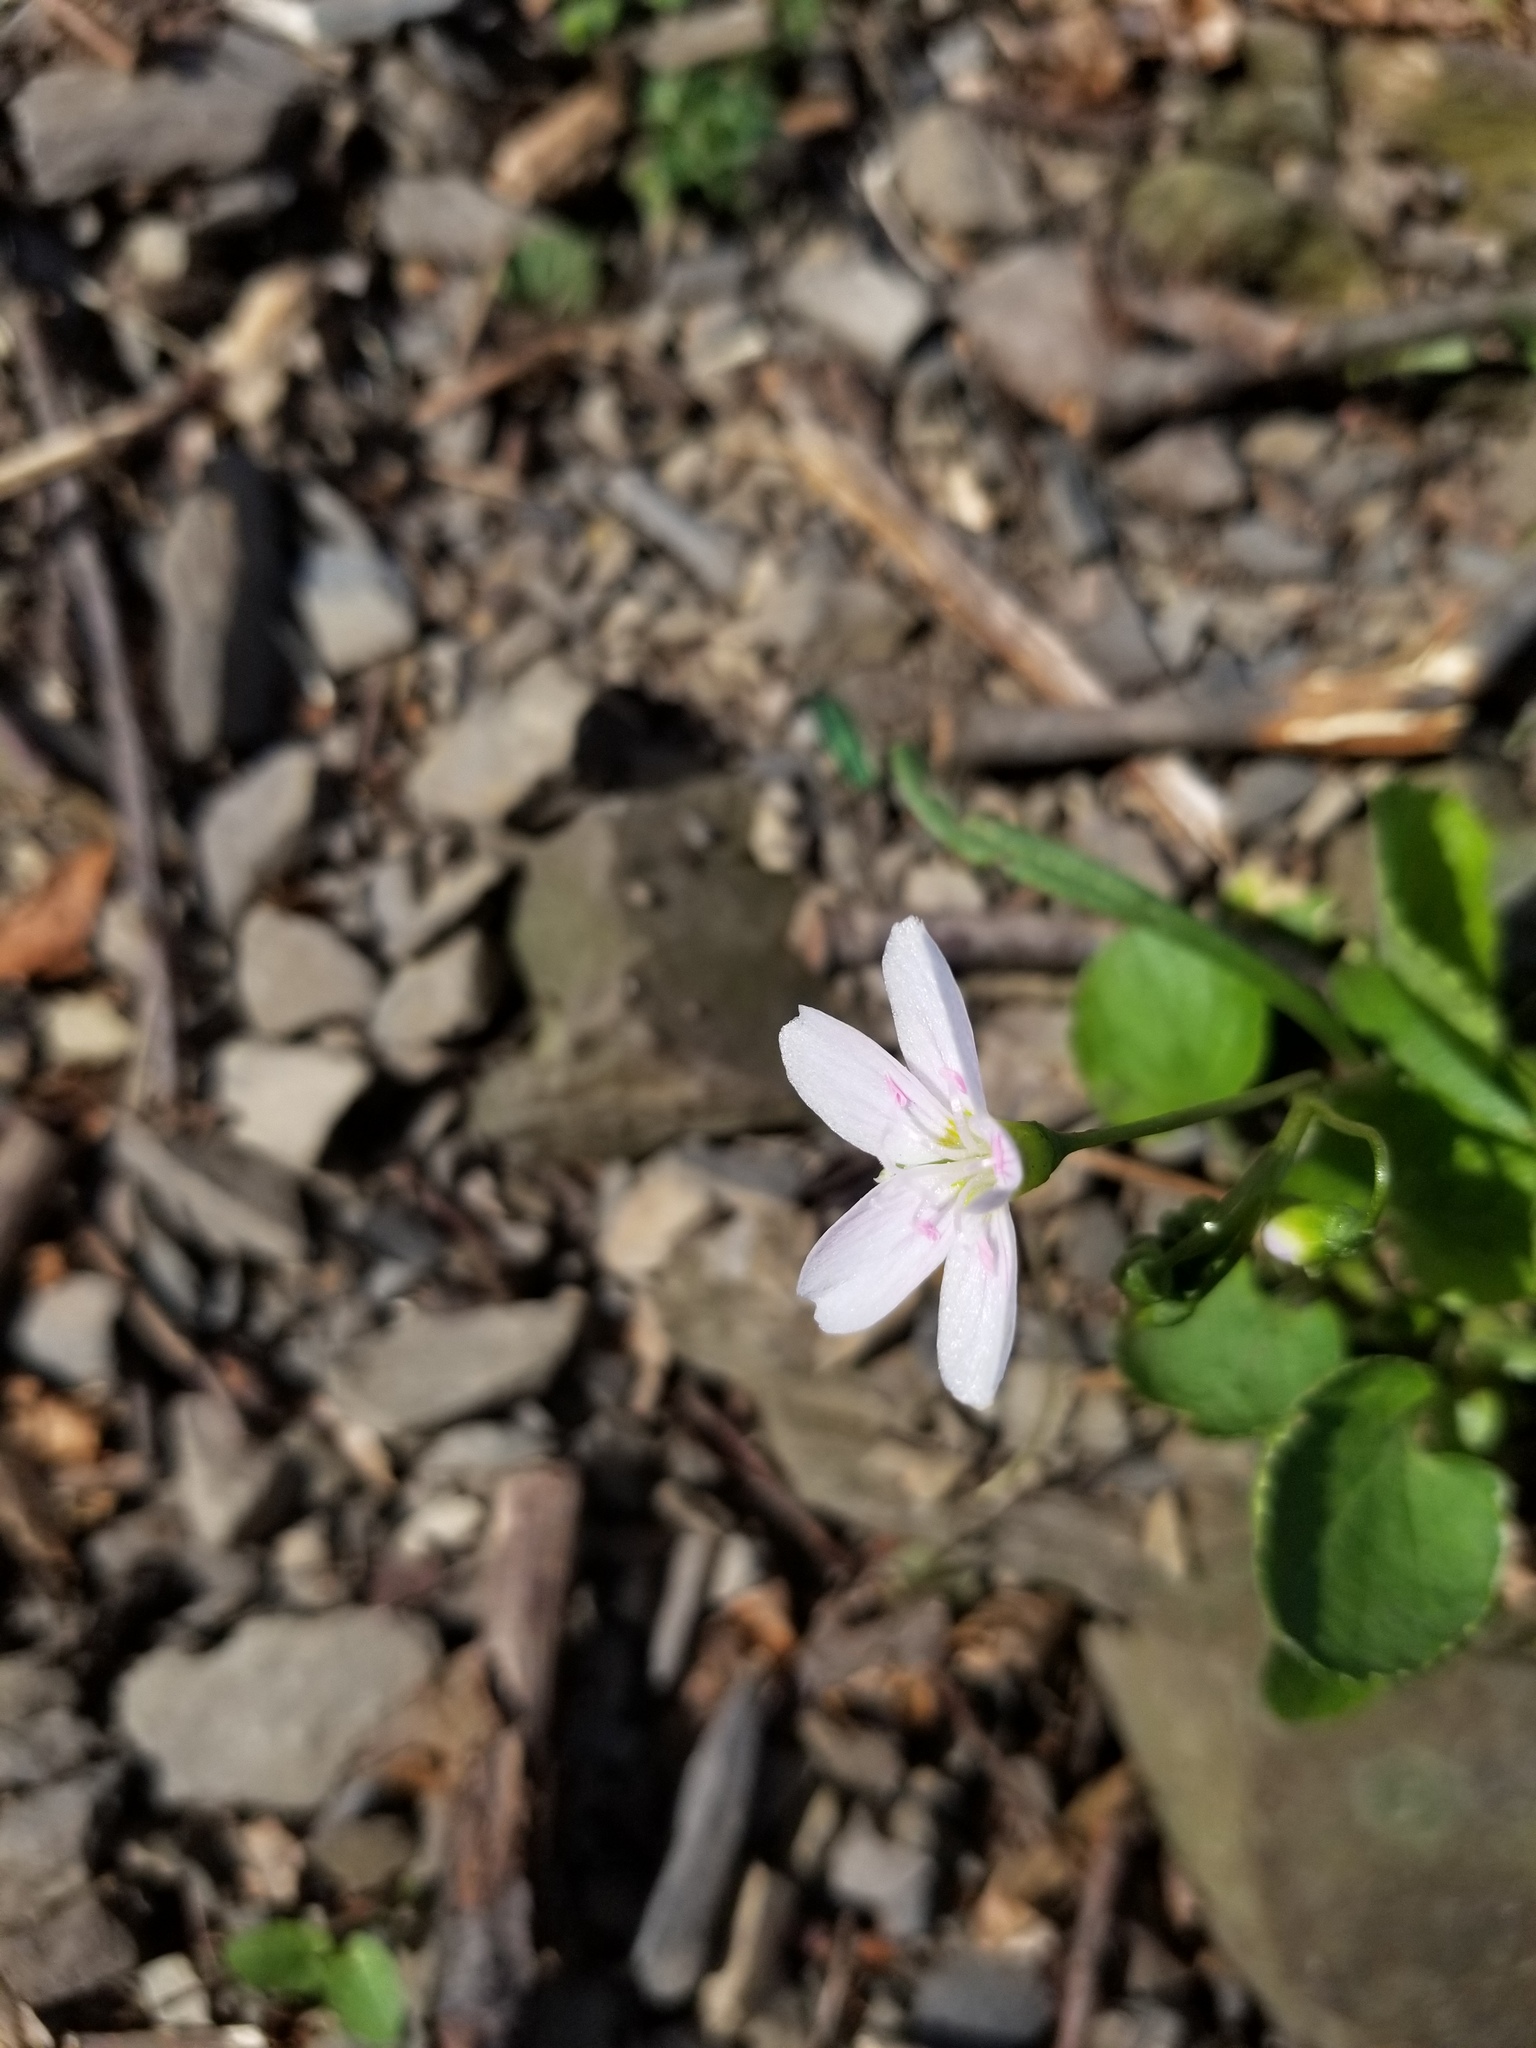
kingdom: Plantae
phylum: Tracheophyta
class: Magnoliopsida
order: Caryophyllales
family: Montiaceae
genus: Claytonia
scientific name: Claytonia virginica
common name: Virginia springbeauty
